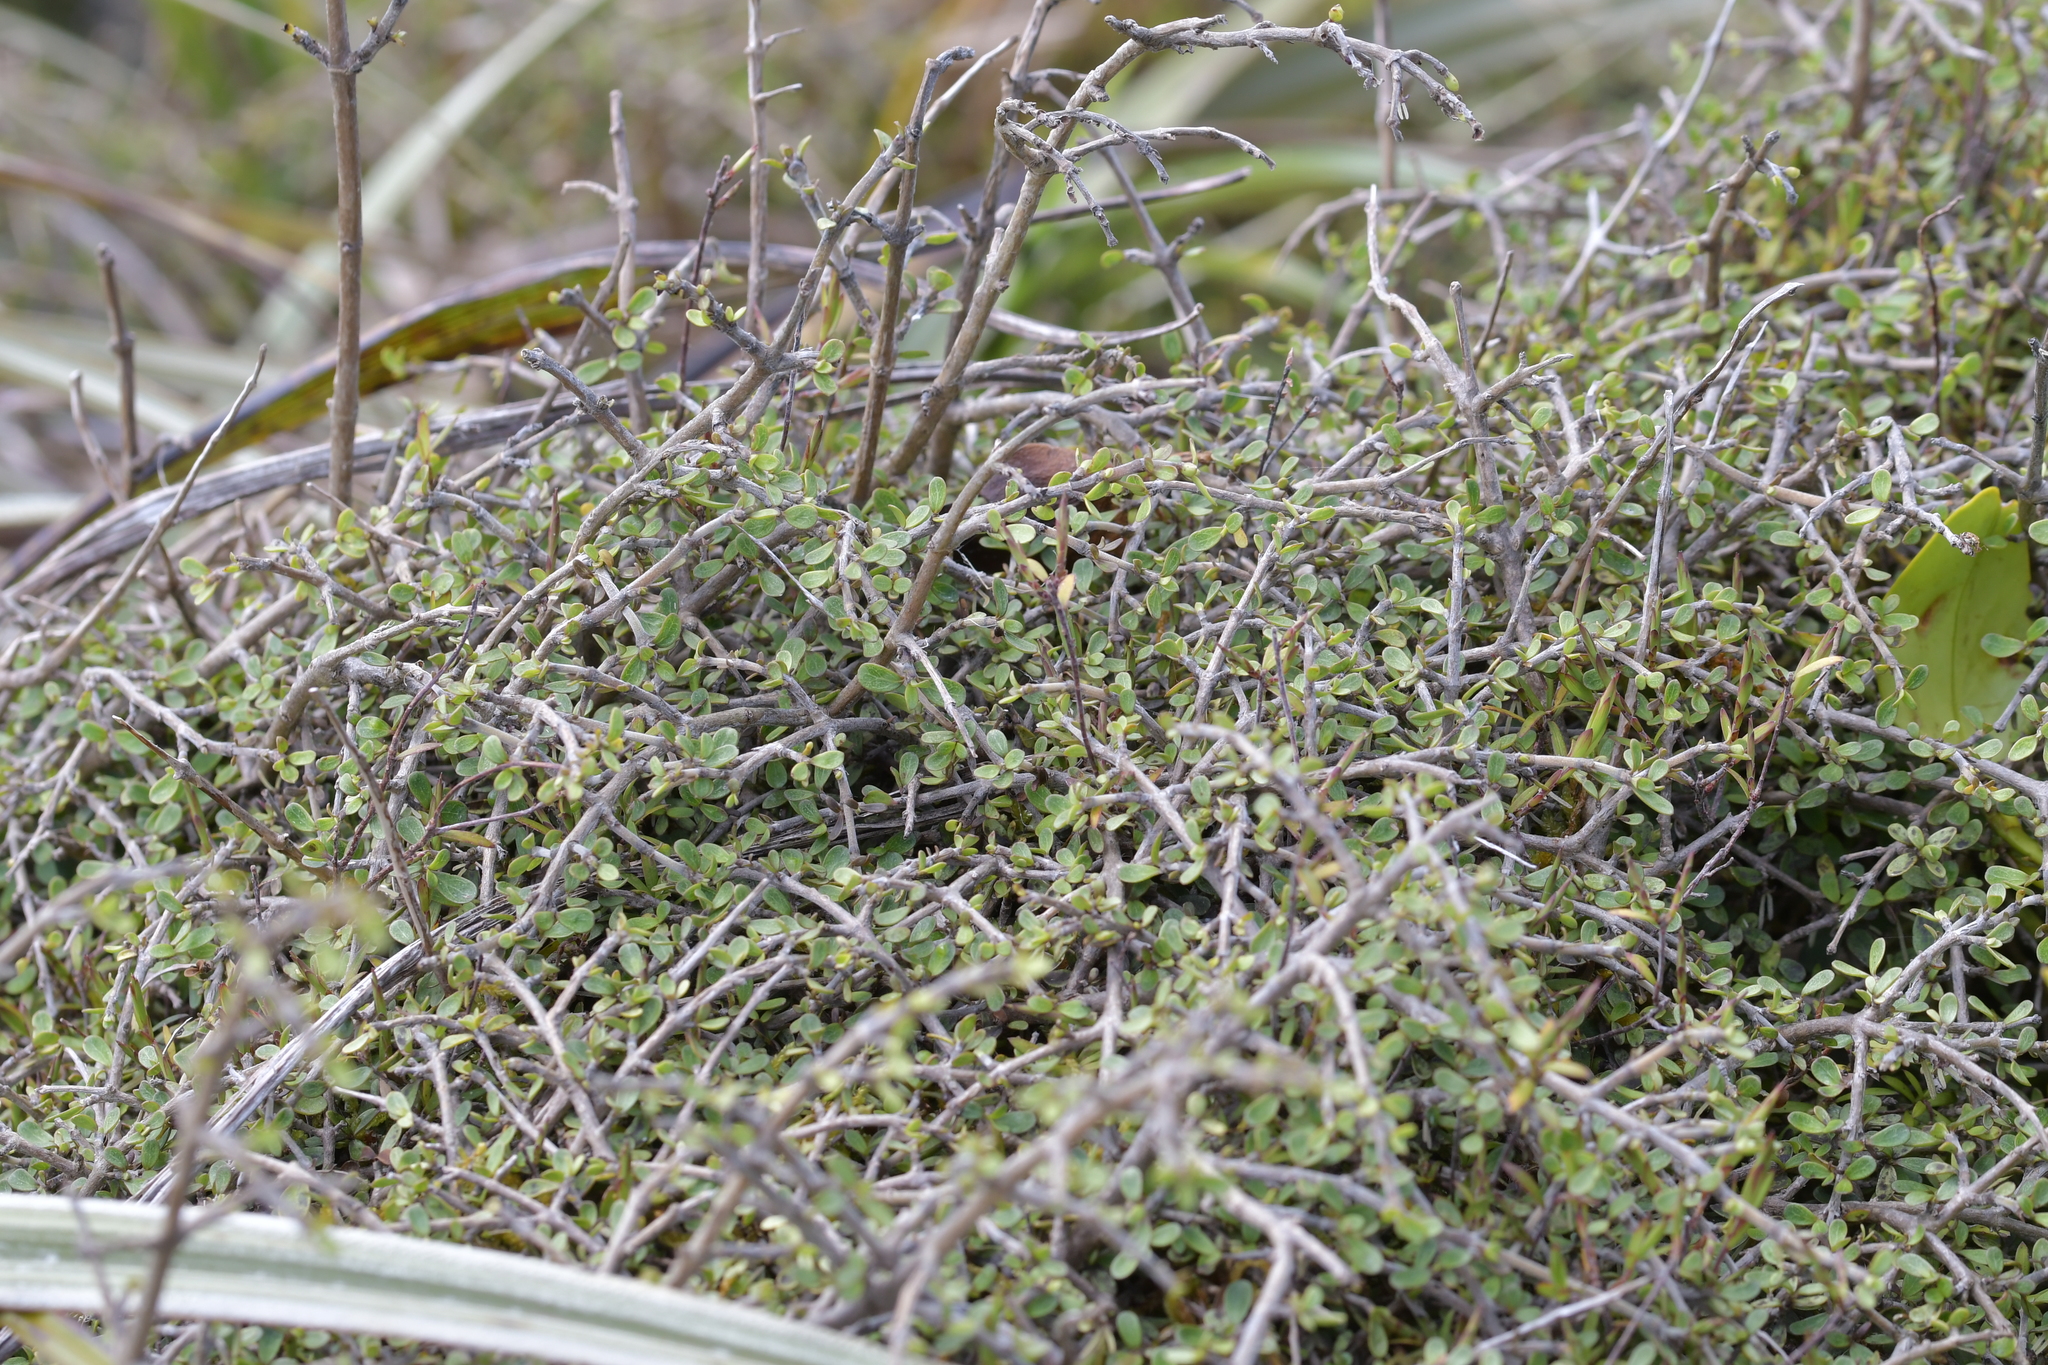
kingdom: Plantae
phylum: Tracheophyta
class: Magnoliopsida
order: Gentianales
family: Rubiaceae
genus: Coprosma
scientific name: Coprosma dumosa
